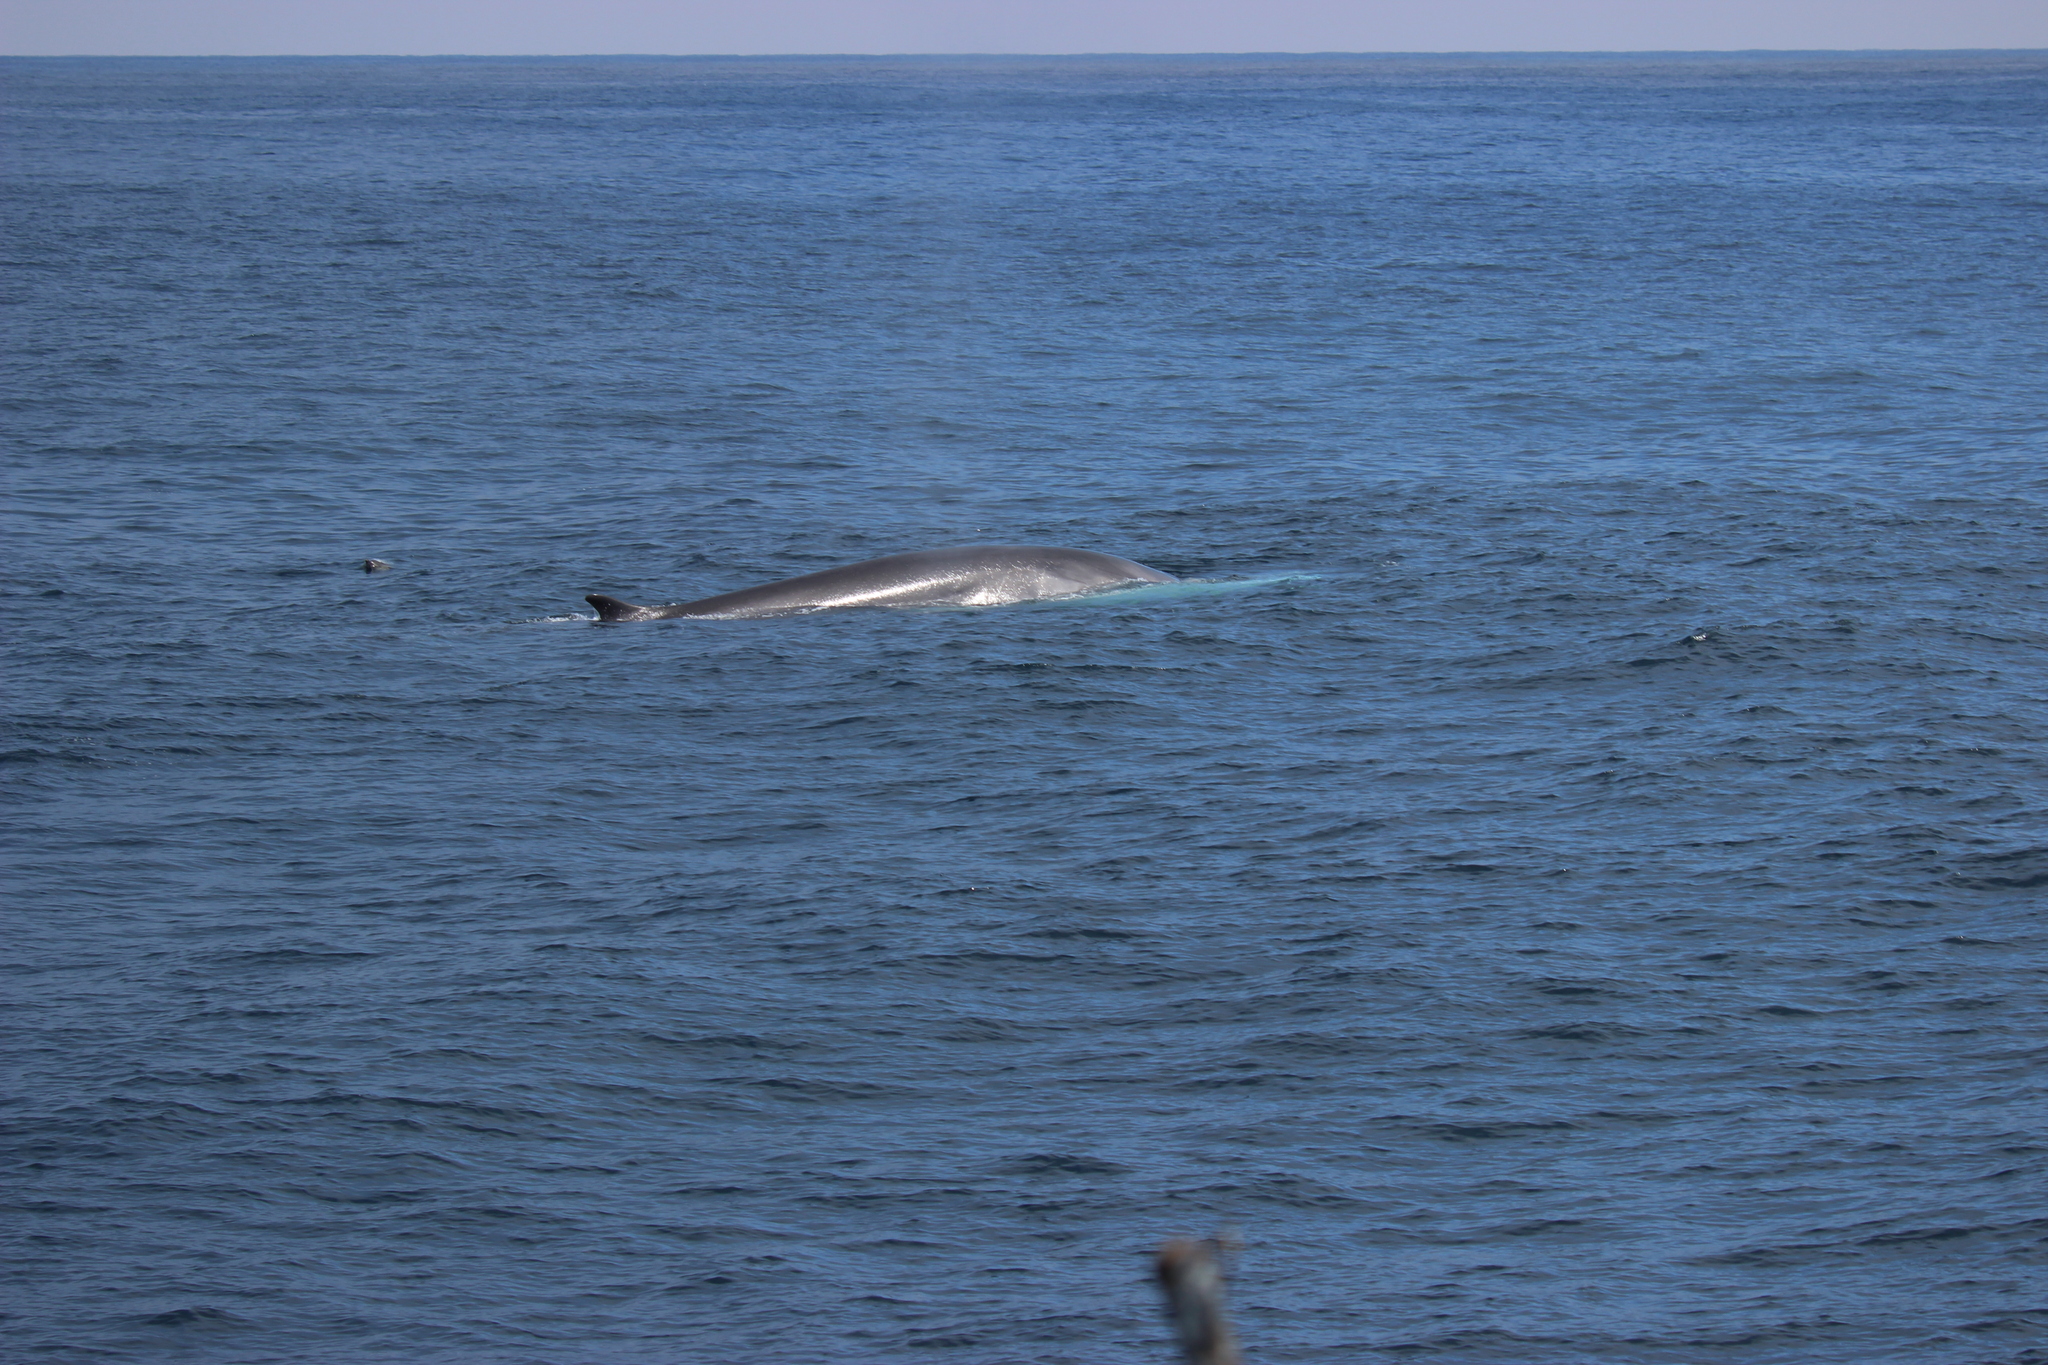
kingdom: Animalia
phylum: Chordata
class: Mammalia
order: Cetacea
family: Balaenopteridae
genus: Balaenoptera
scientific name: Balaenoptera physalus
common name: Fin whale
